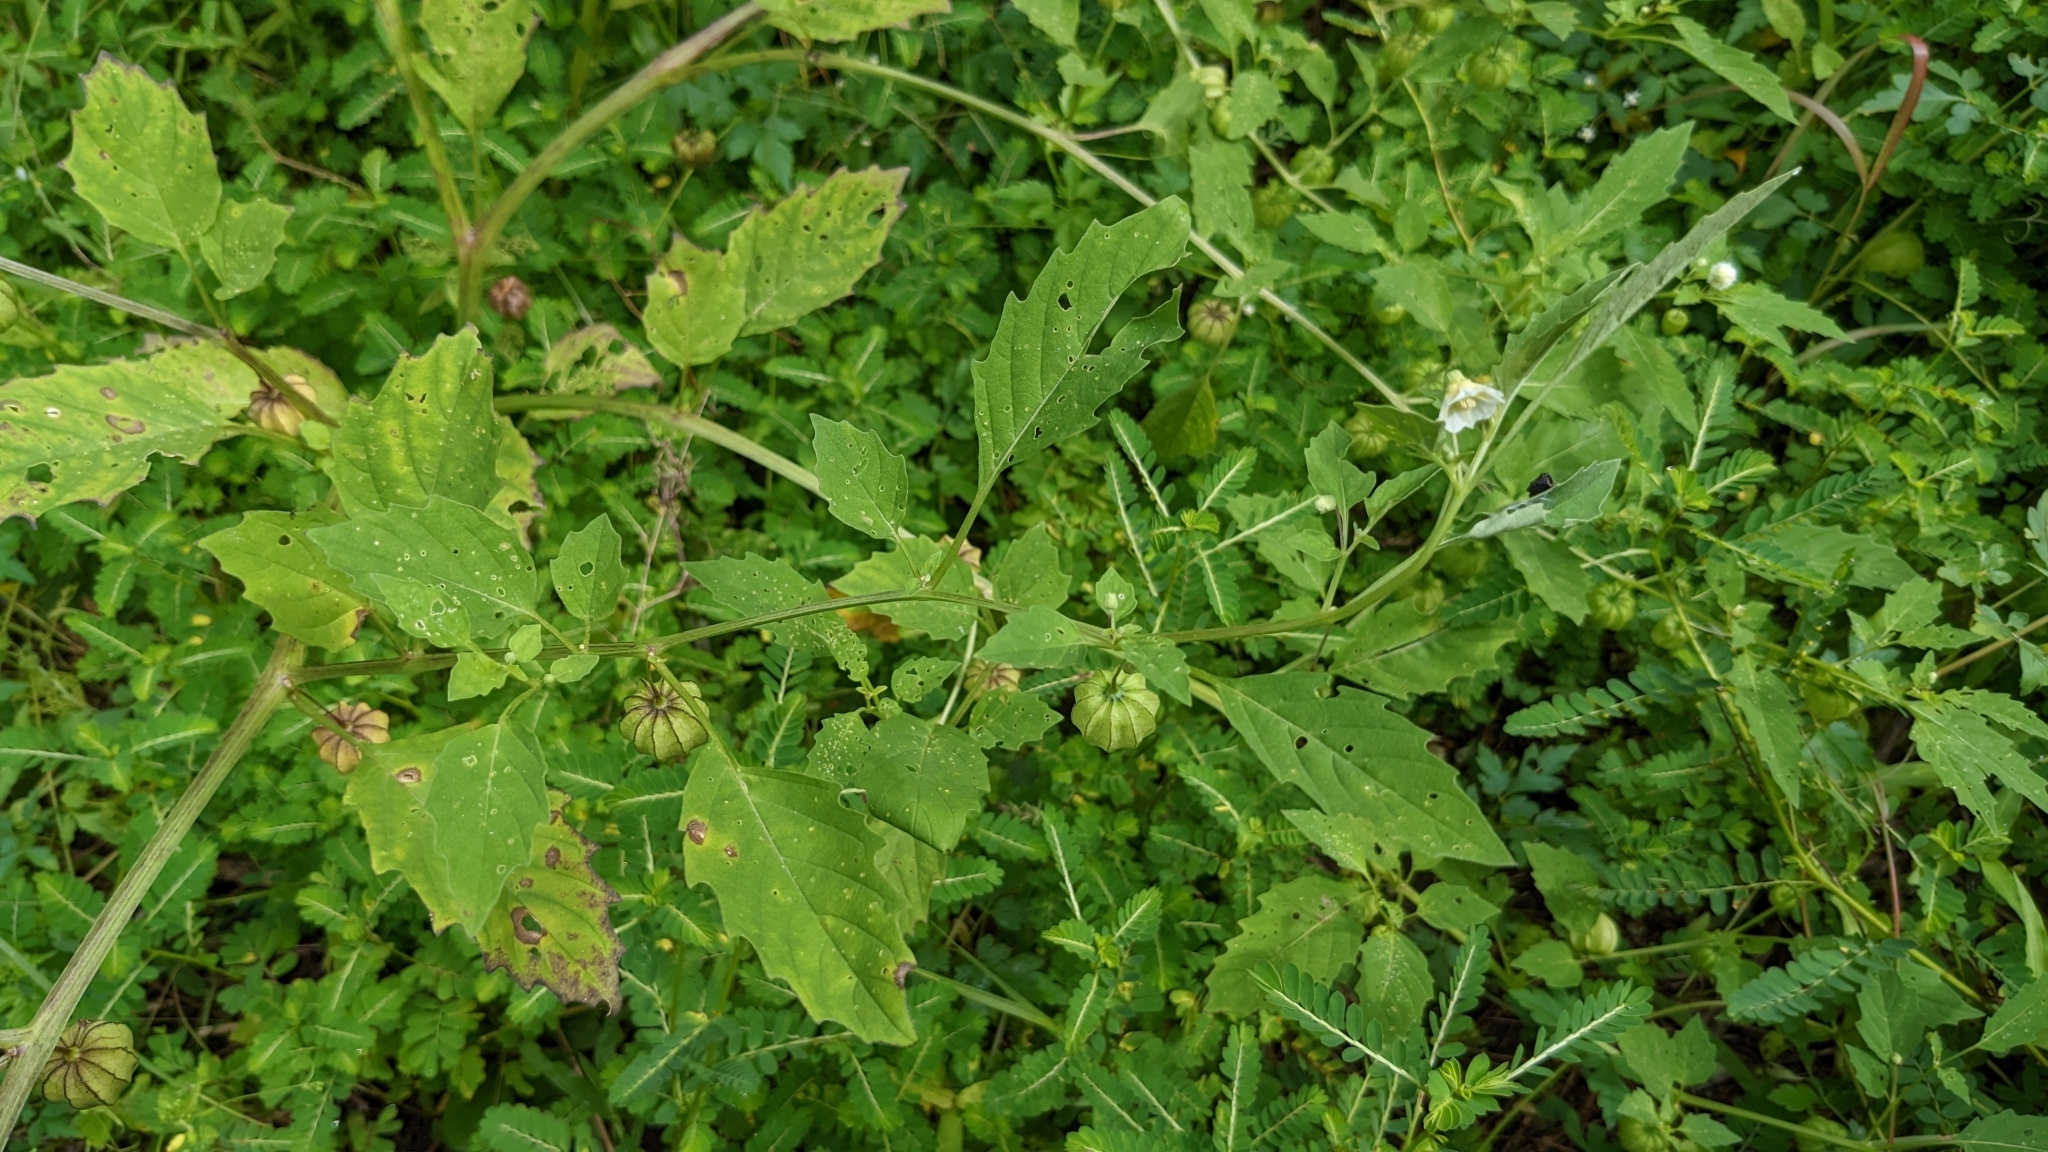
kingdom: Plantae
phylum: Tracheophyta
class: Magnoliopsida
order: Solanales
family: Solanaceae
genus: Physalis
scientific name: Physalis angulata
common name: Angular winter-cherry
